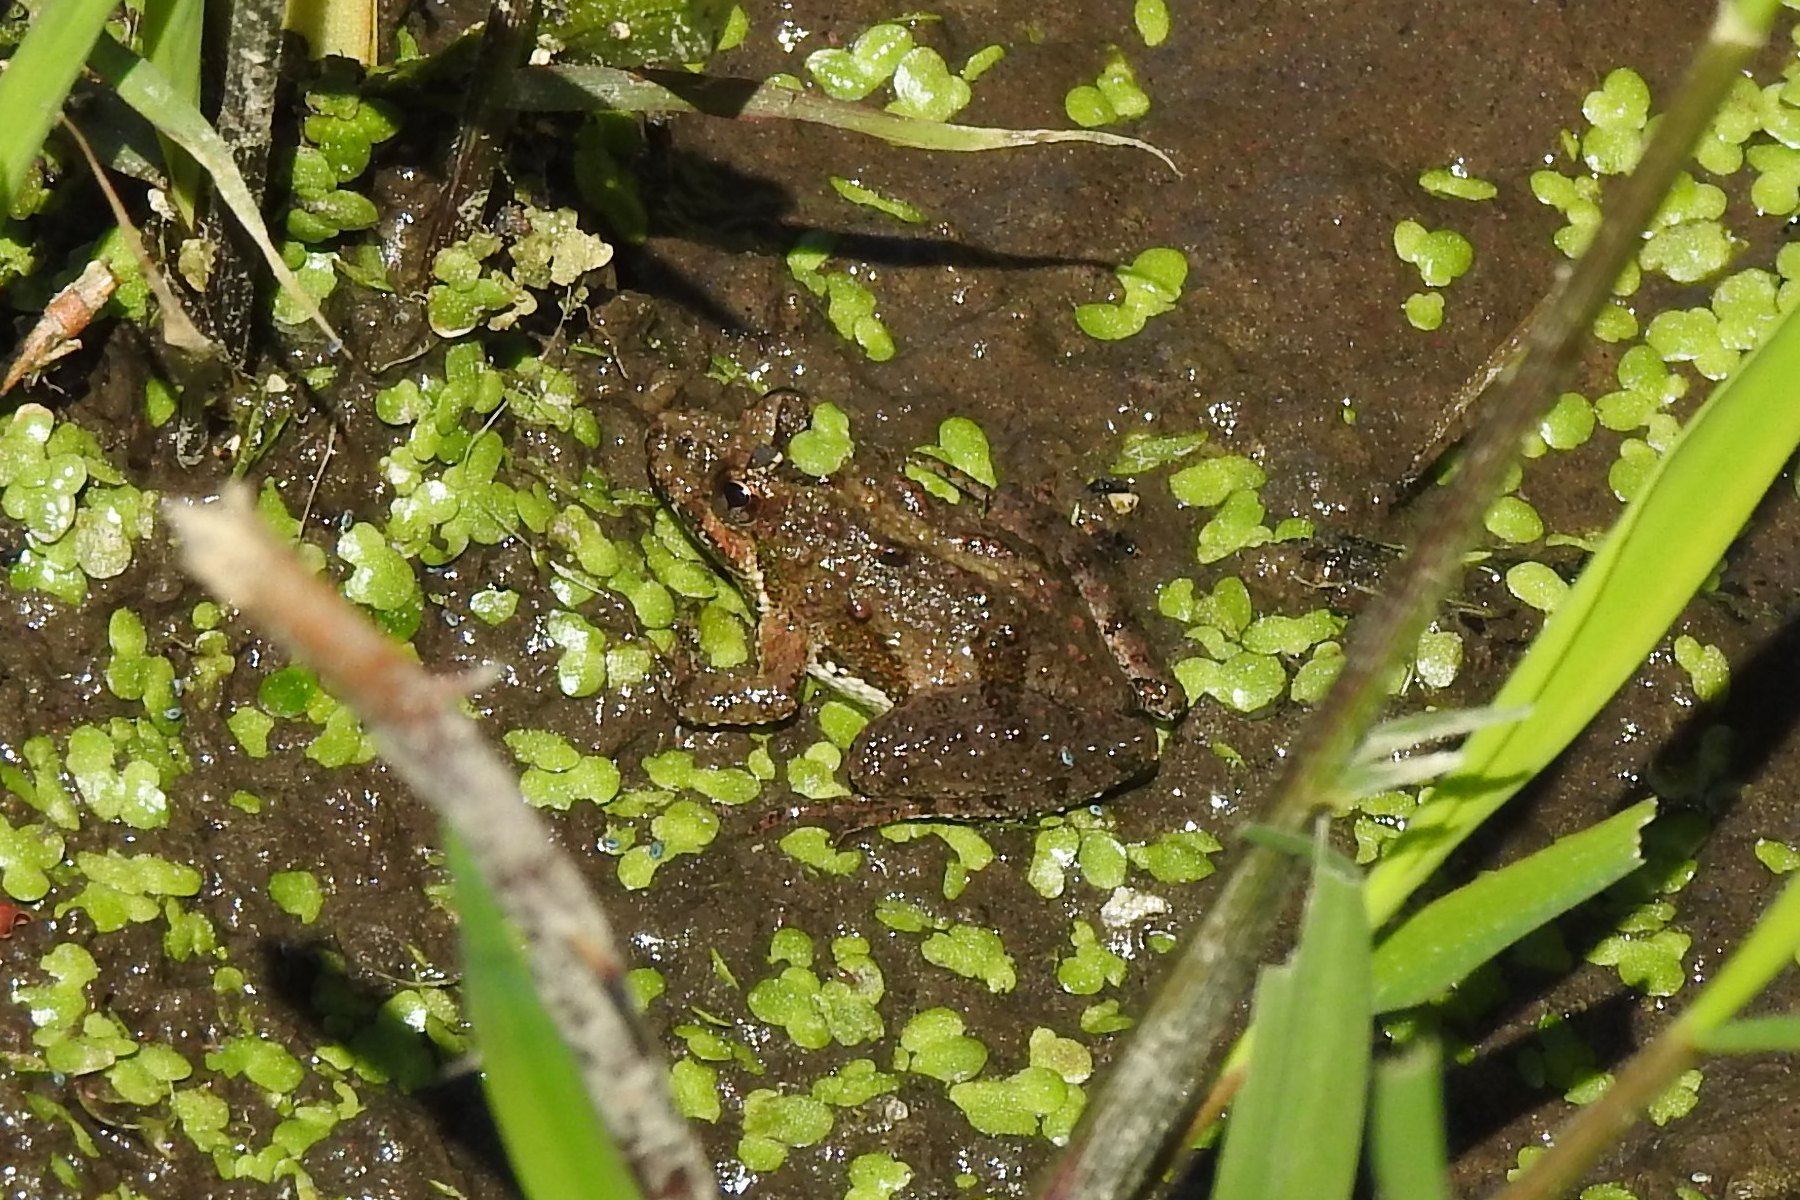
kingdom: Animalia
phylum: Chordata
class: Amphibia
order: Anura
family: Hylidae
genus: Acris
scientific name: Acris crepitans
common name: Northern cricket frog
